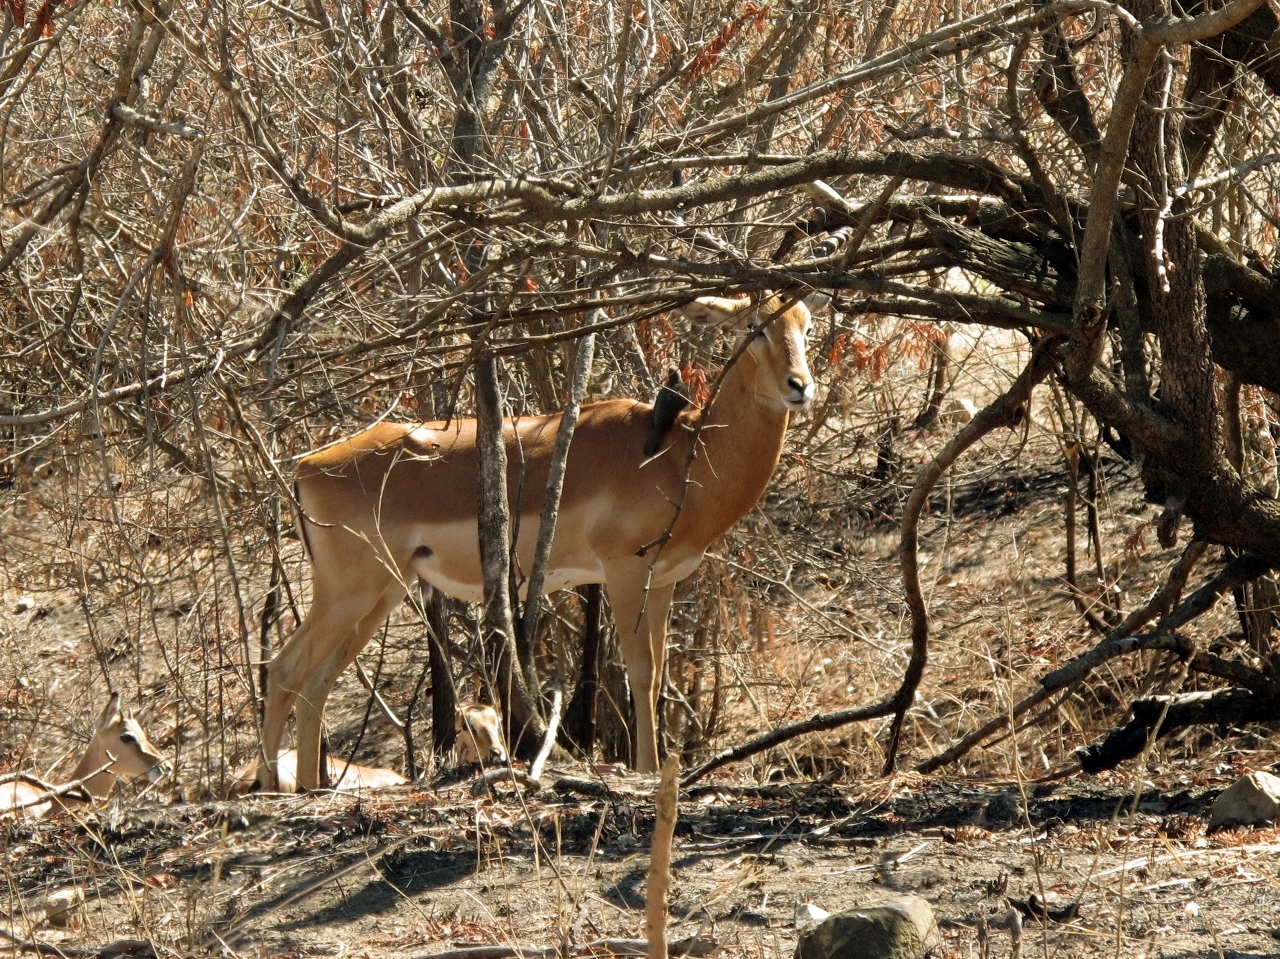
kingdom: Animalia
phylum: Chordata
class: Mammalia
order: Artiodactyla
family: Bovidae
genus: Aepyceros
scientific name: Aepyceros melampus
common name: Impala
